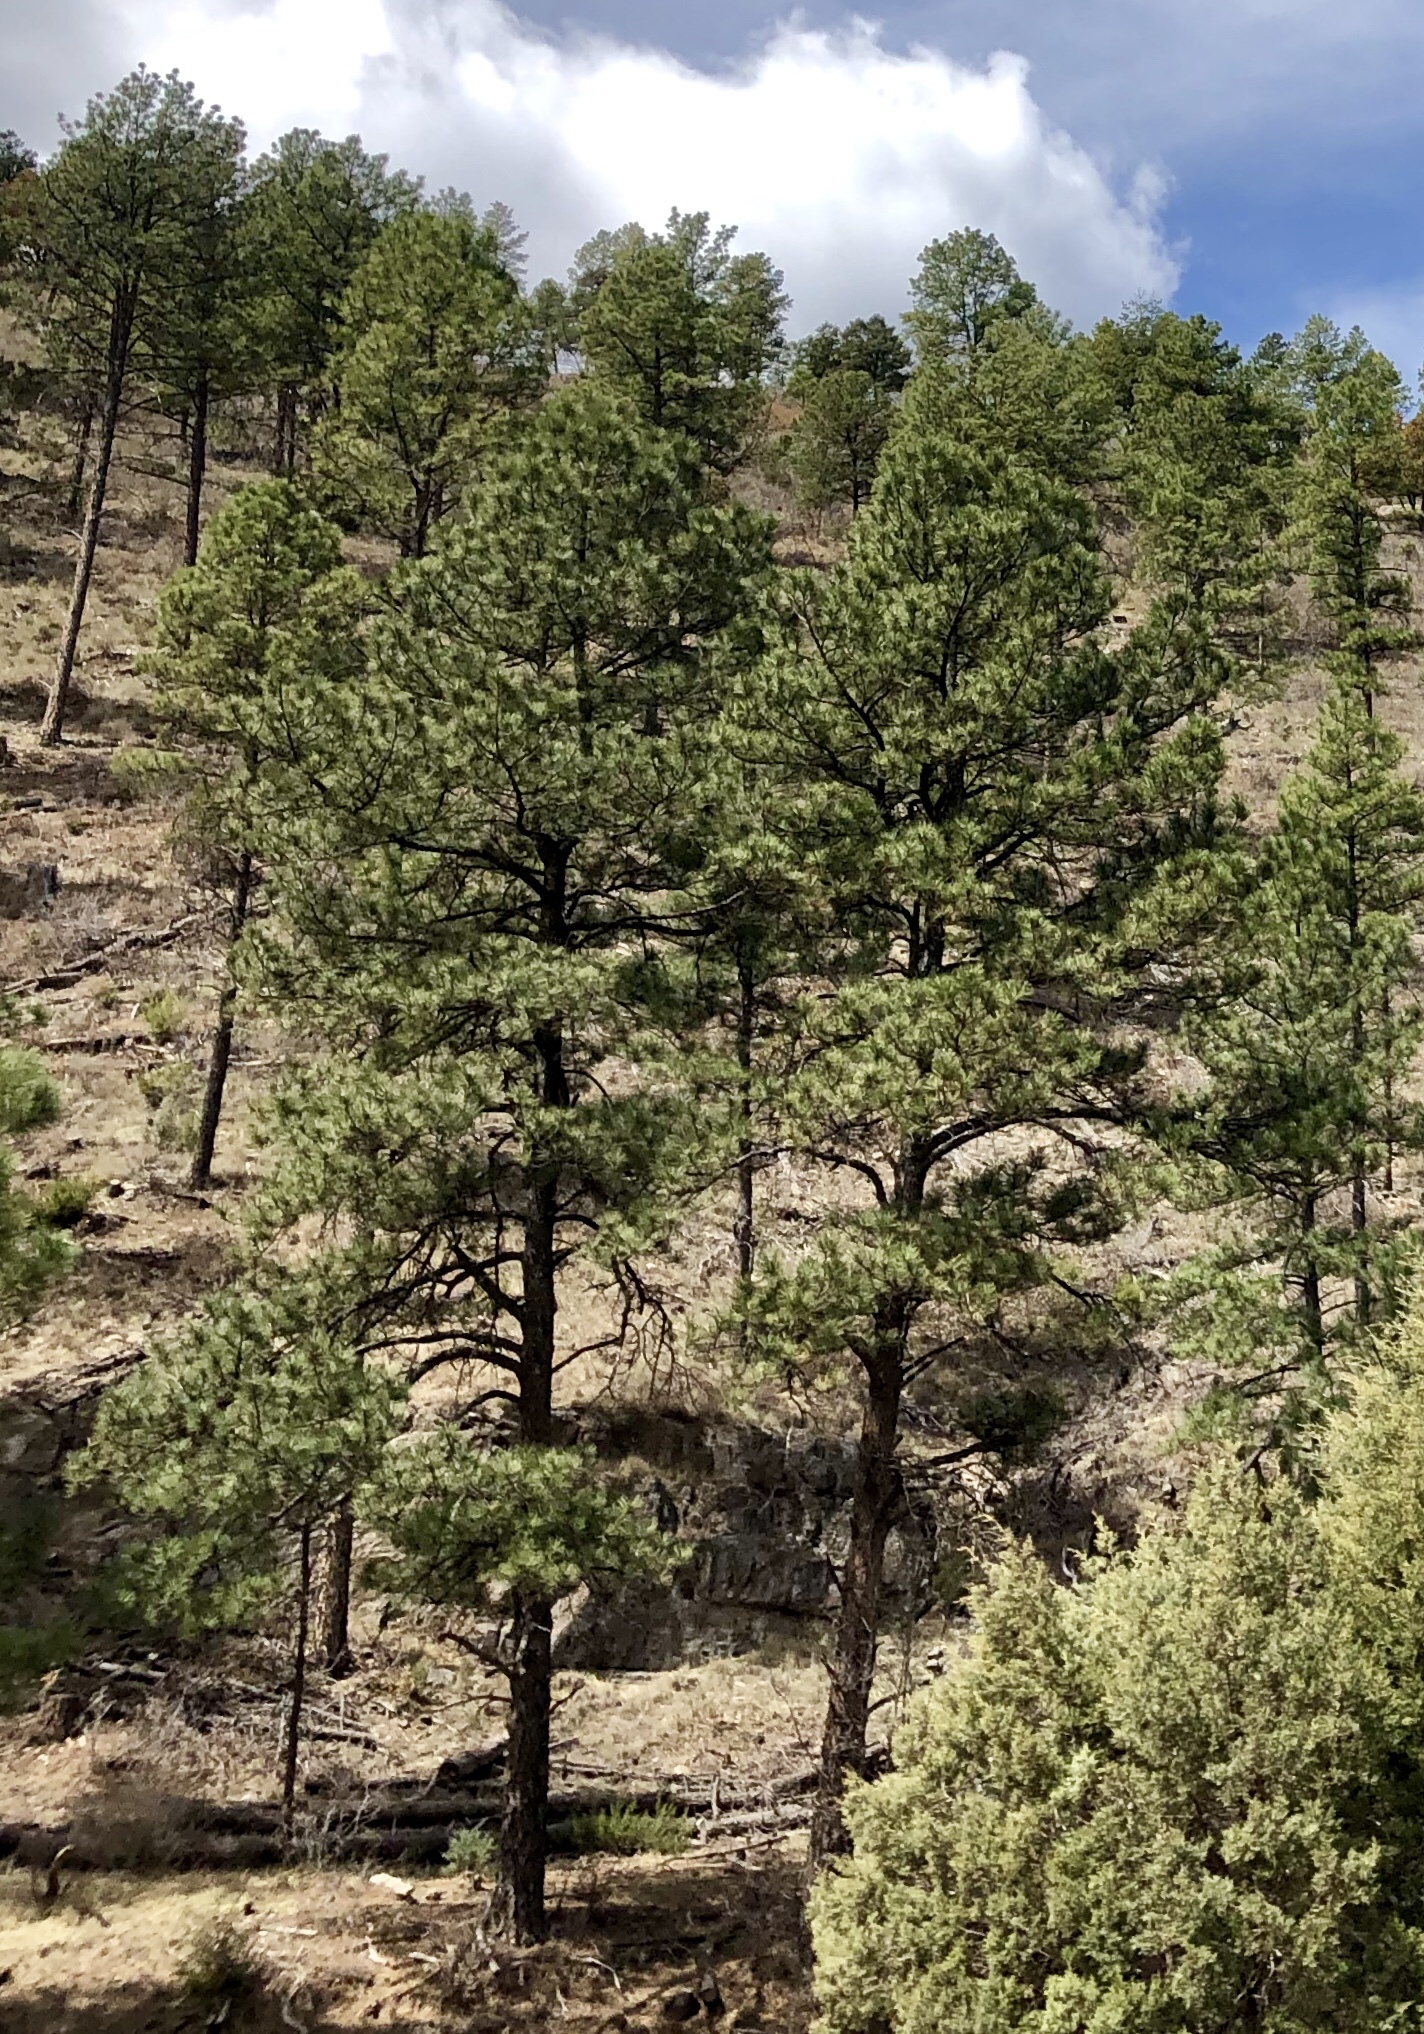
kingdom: Plantae
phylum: Tracheophyta
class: Pinopsida
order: Pinales
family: Pinaceae
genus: Pinus
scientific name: Pinus ponderosa
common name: Western yellow-pine
